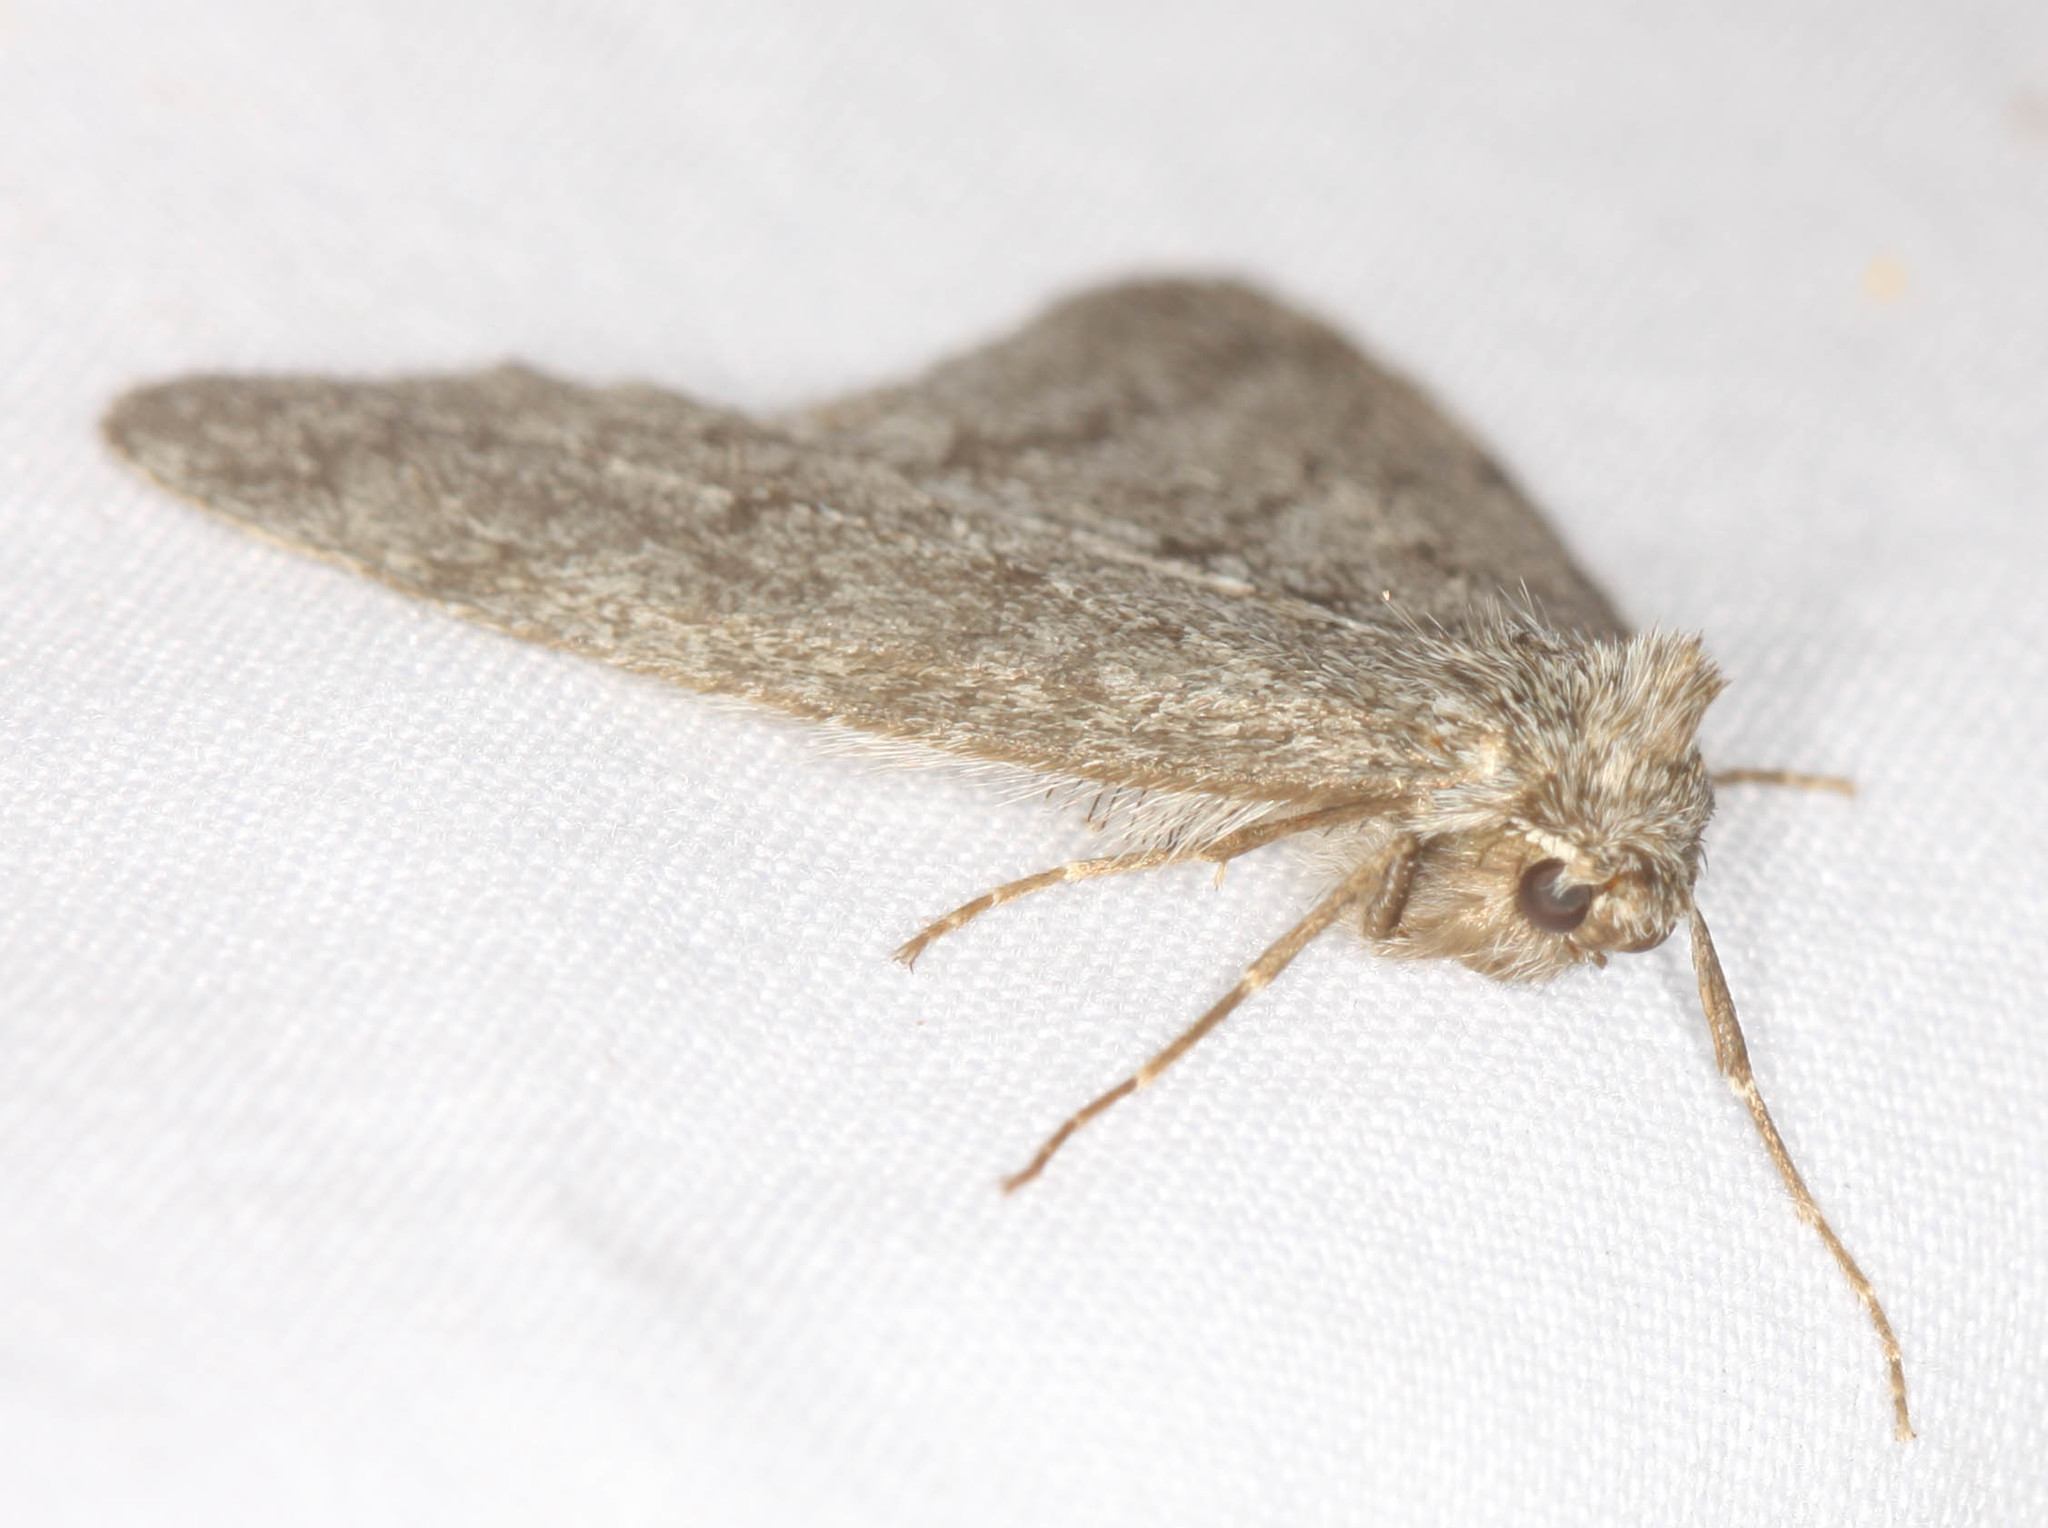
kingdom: Animalia
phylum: Arthropoda
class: Insecta
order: Lepidoptera
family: Geometridae
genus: Phigalia
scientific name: Phigalia plumogeraria
